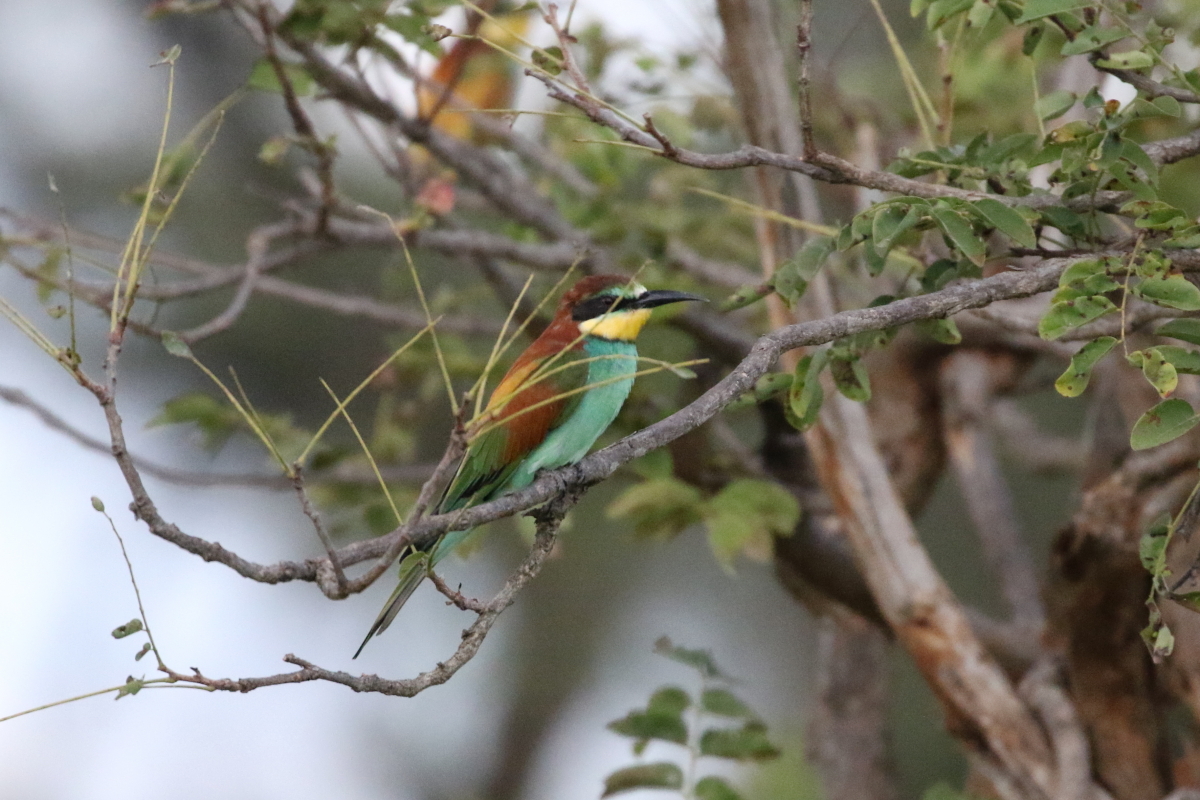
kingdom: Animalia
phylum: Chordata
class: Aves
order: Coraciiformes
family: Meropidae
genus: Merops
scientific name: Merops apiaster
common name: European bee-eater
